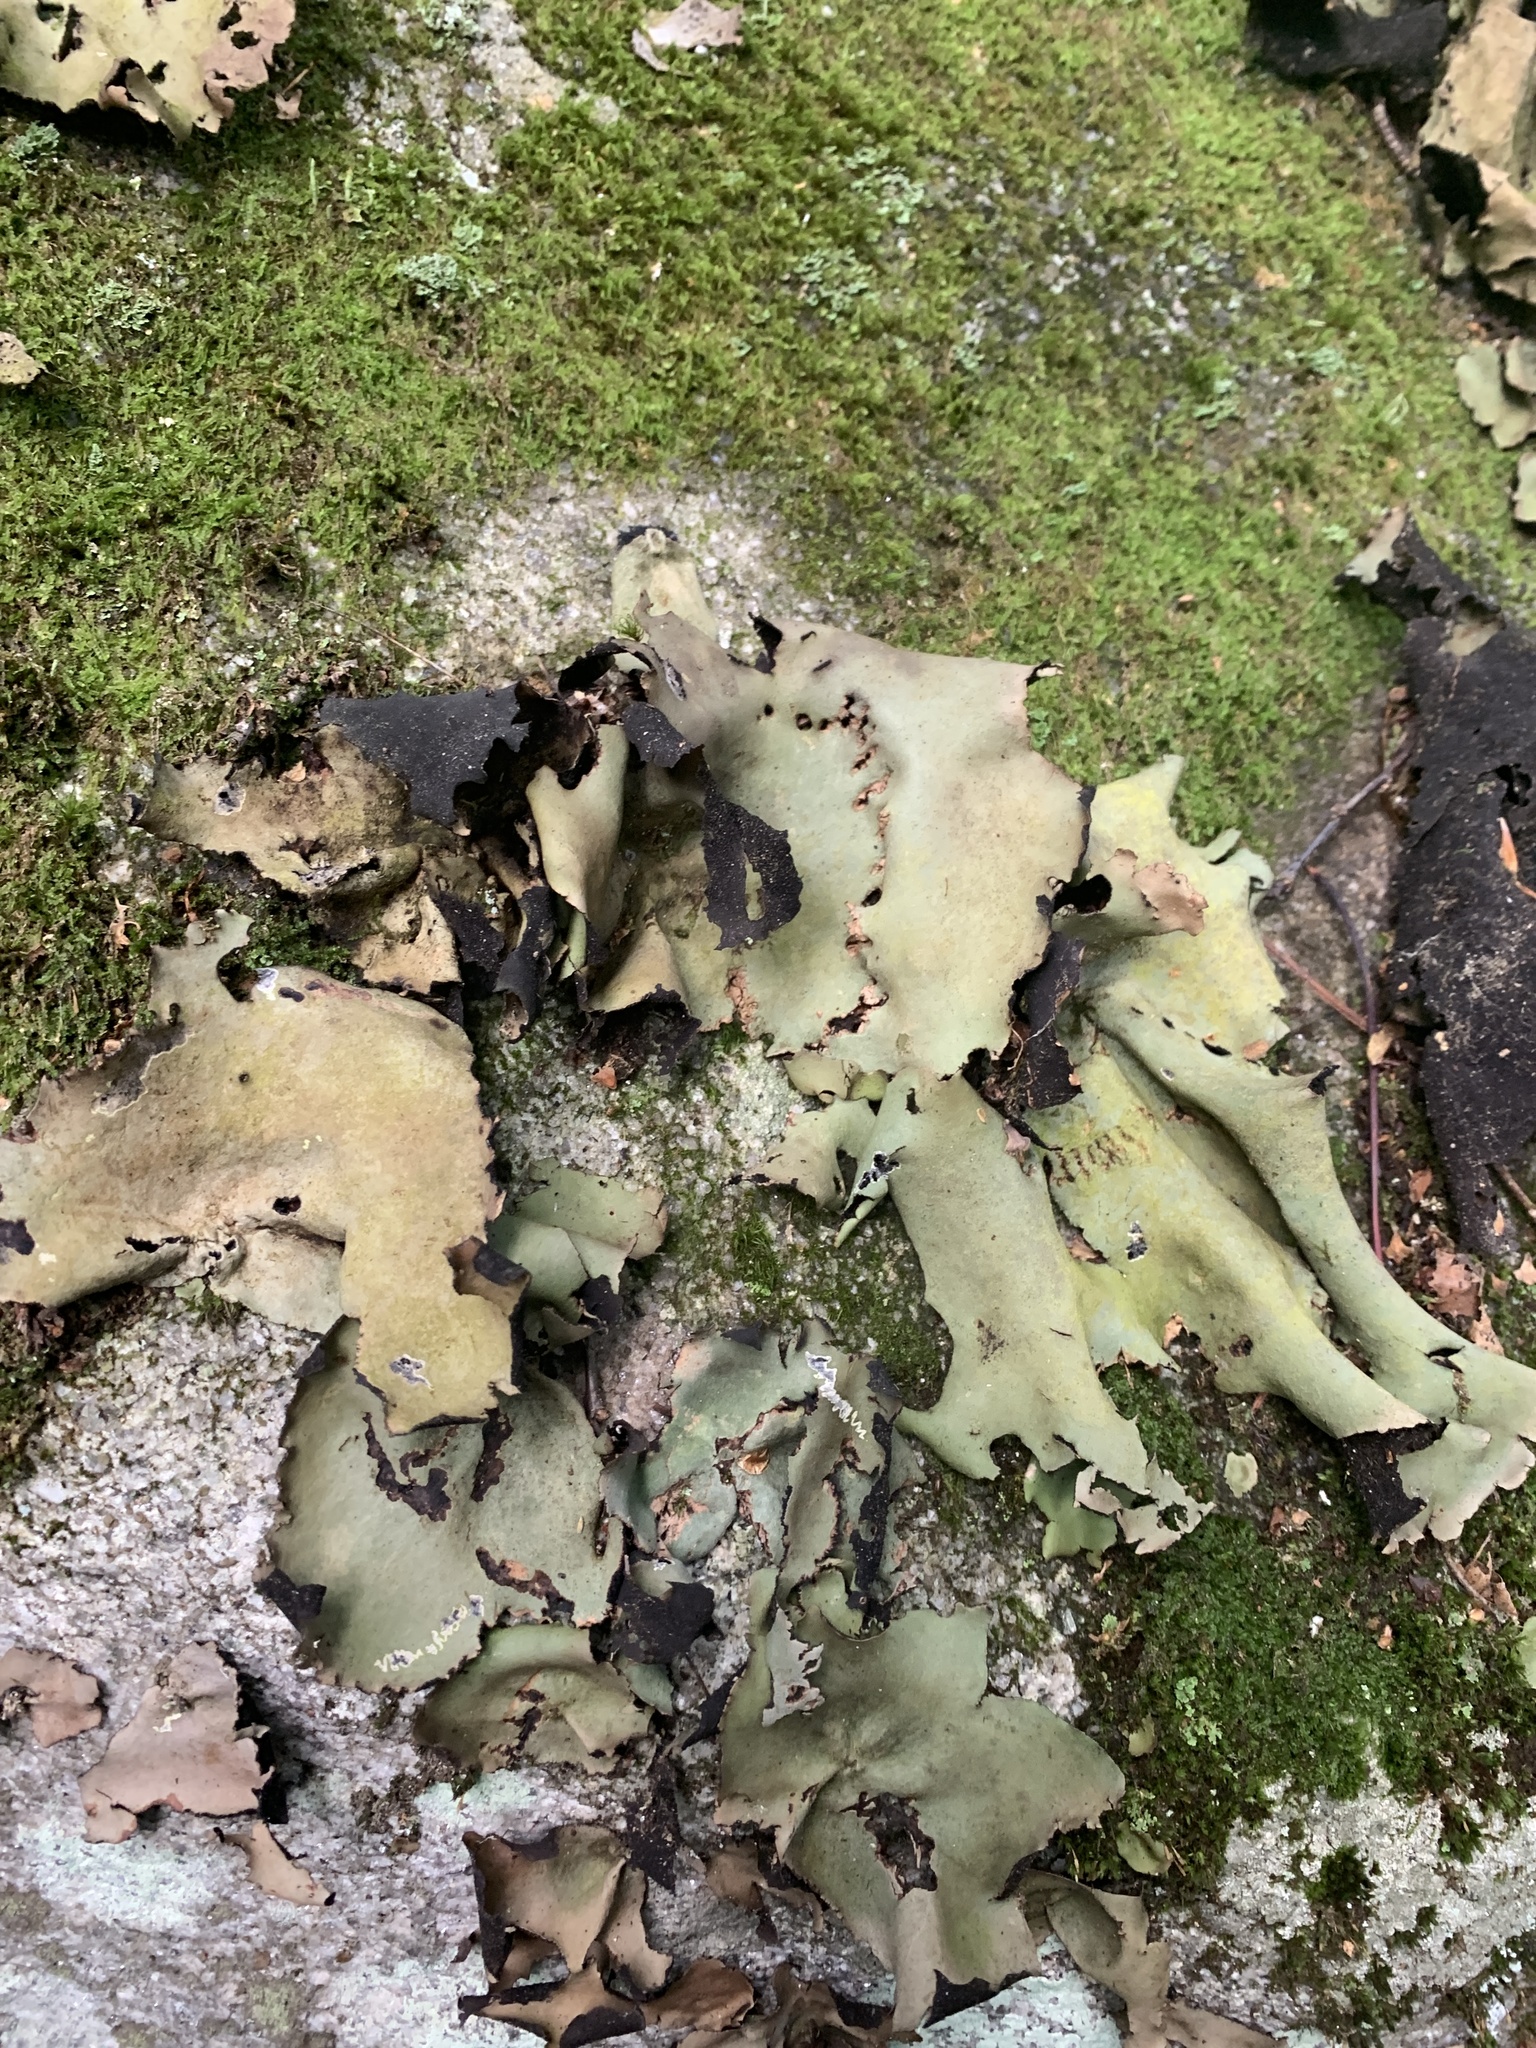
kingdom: Fungi
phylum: Ascomycota
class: Lecanoromycetes
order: Umbilicariales
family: Umbilicariaceae
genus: Umbilicaria
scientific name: Umbilicaria mammulata
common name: Smooth rock tripe
